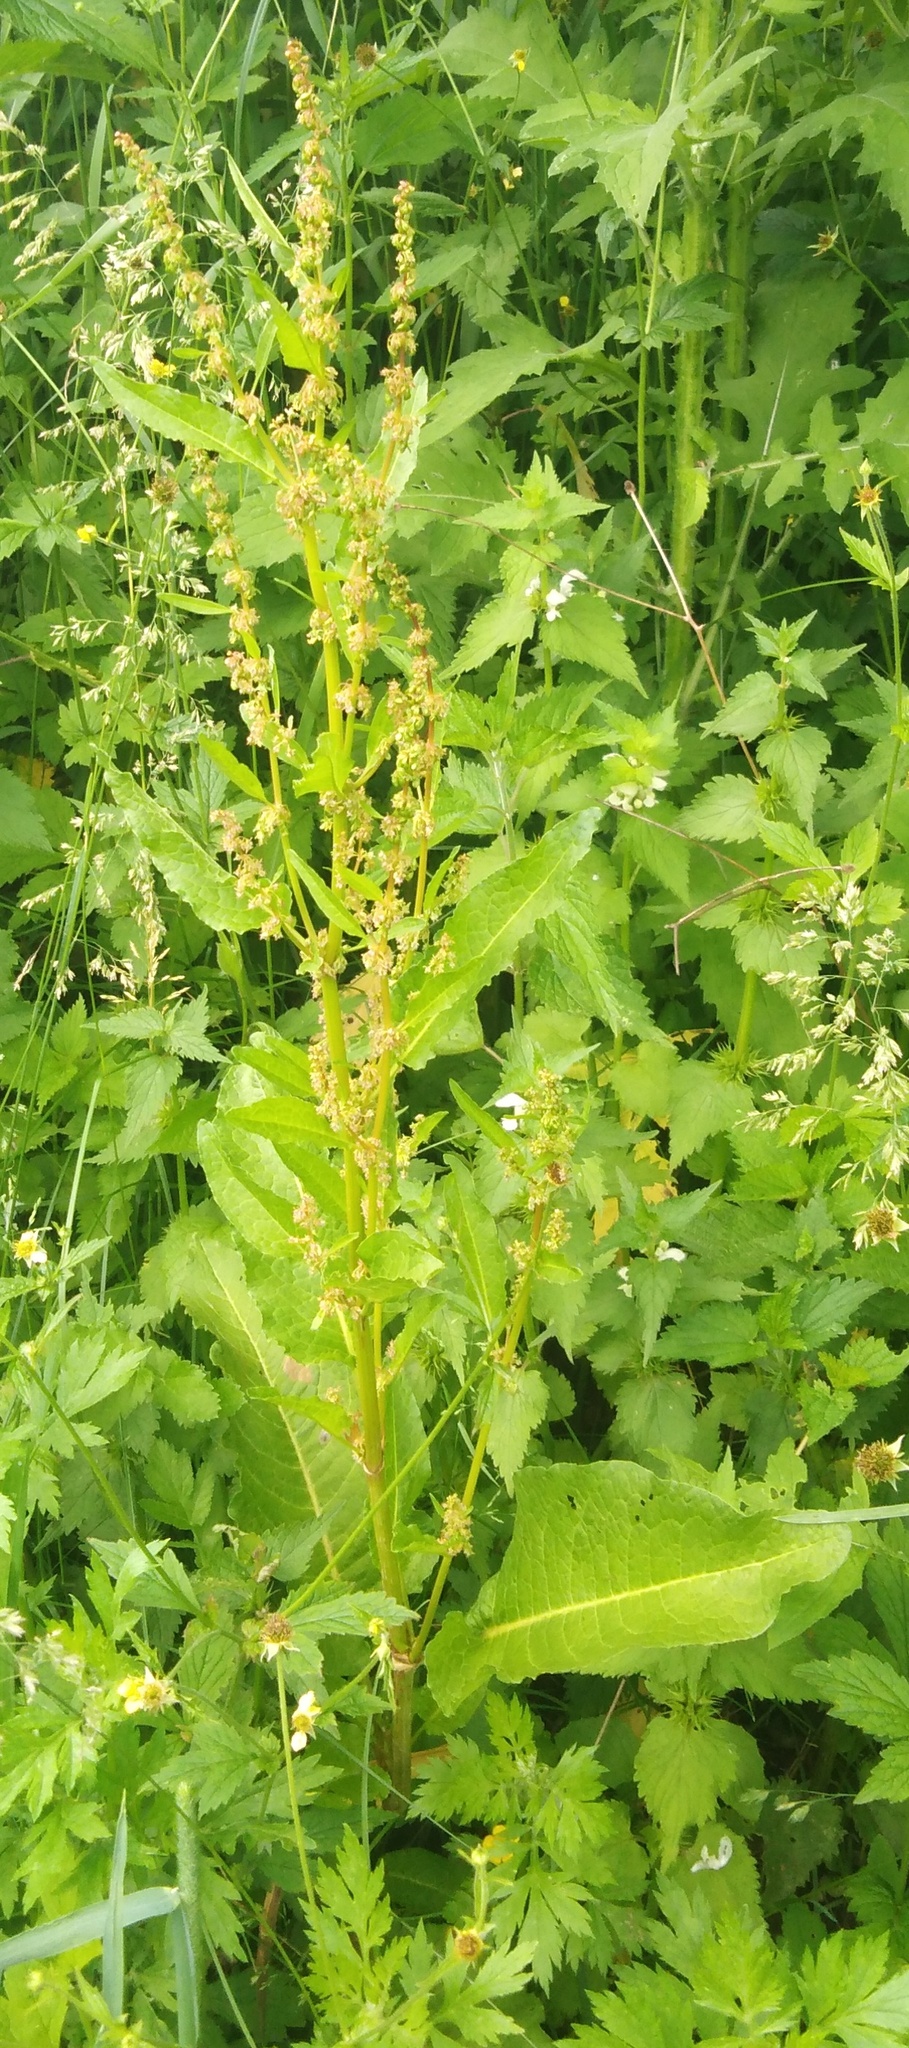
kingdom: Plantae
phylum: Tracheophyta
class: Magnoliopsida
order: Caryophyllales
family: Polygonaceae
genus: Rumex
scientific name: Rumex obtusifolius
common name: Bitter dock
